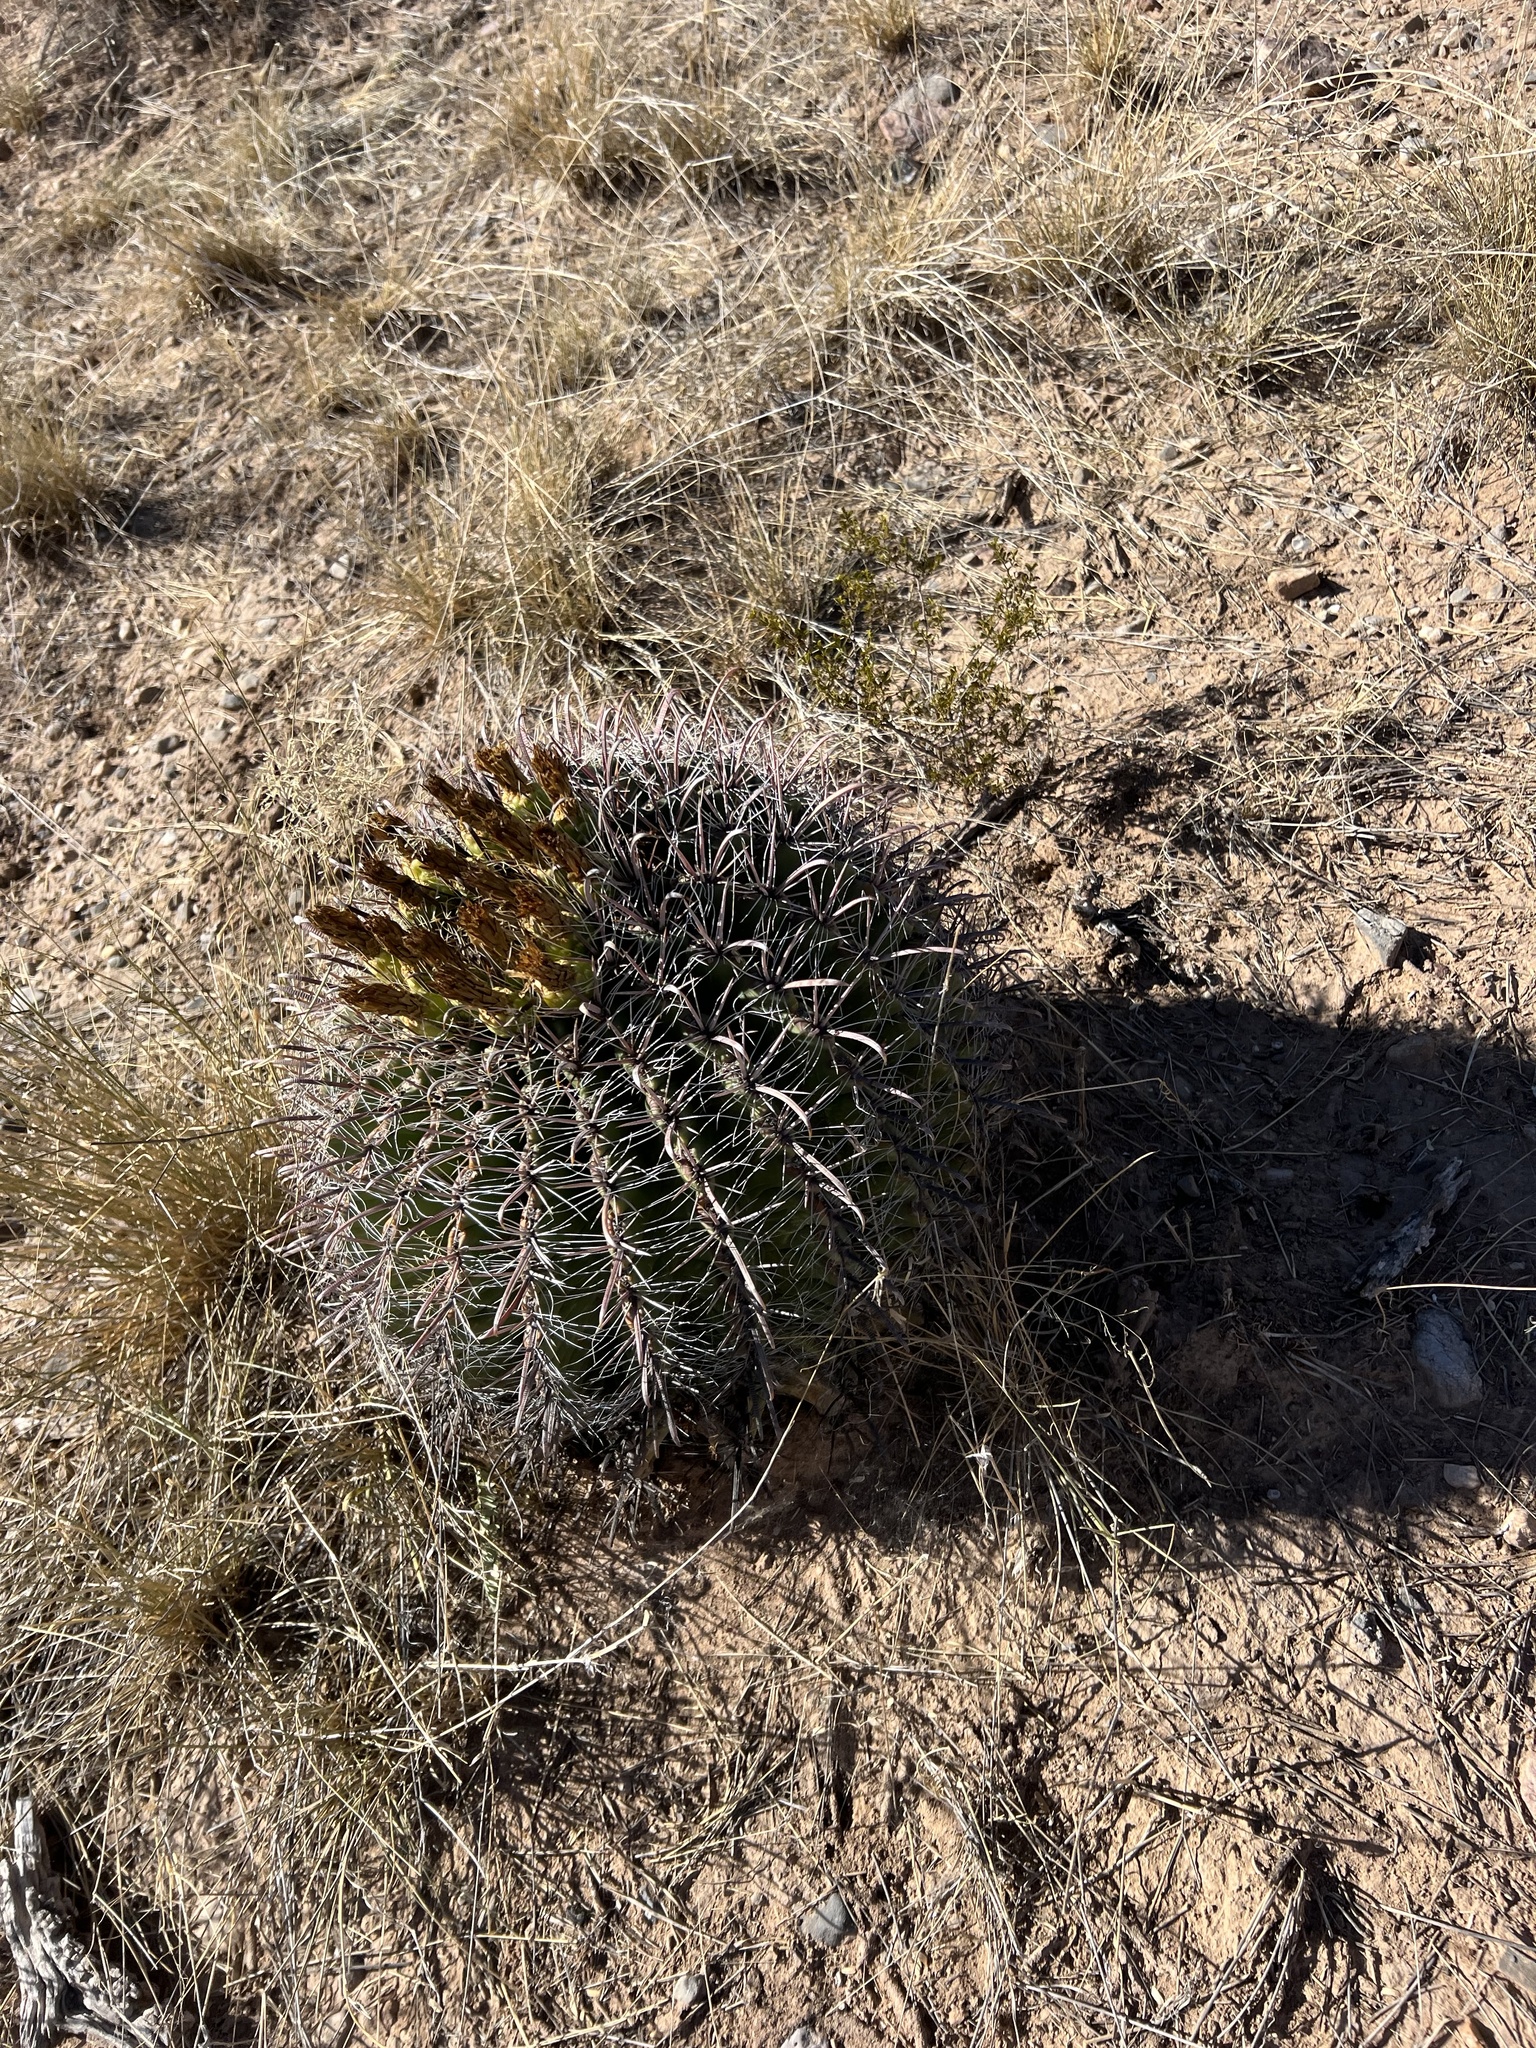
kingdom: Plantae
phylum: Tracheophyta
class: Magnoliopsida
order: Caryophyllales
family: Cactaceae
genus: Ferocactus
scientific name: Ferocactus wislizeni
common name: Candy barrel cactus
